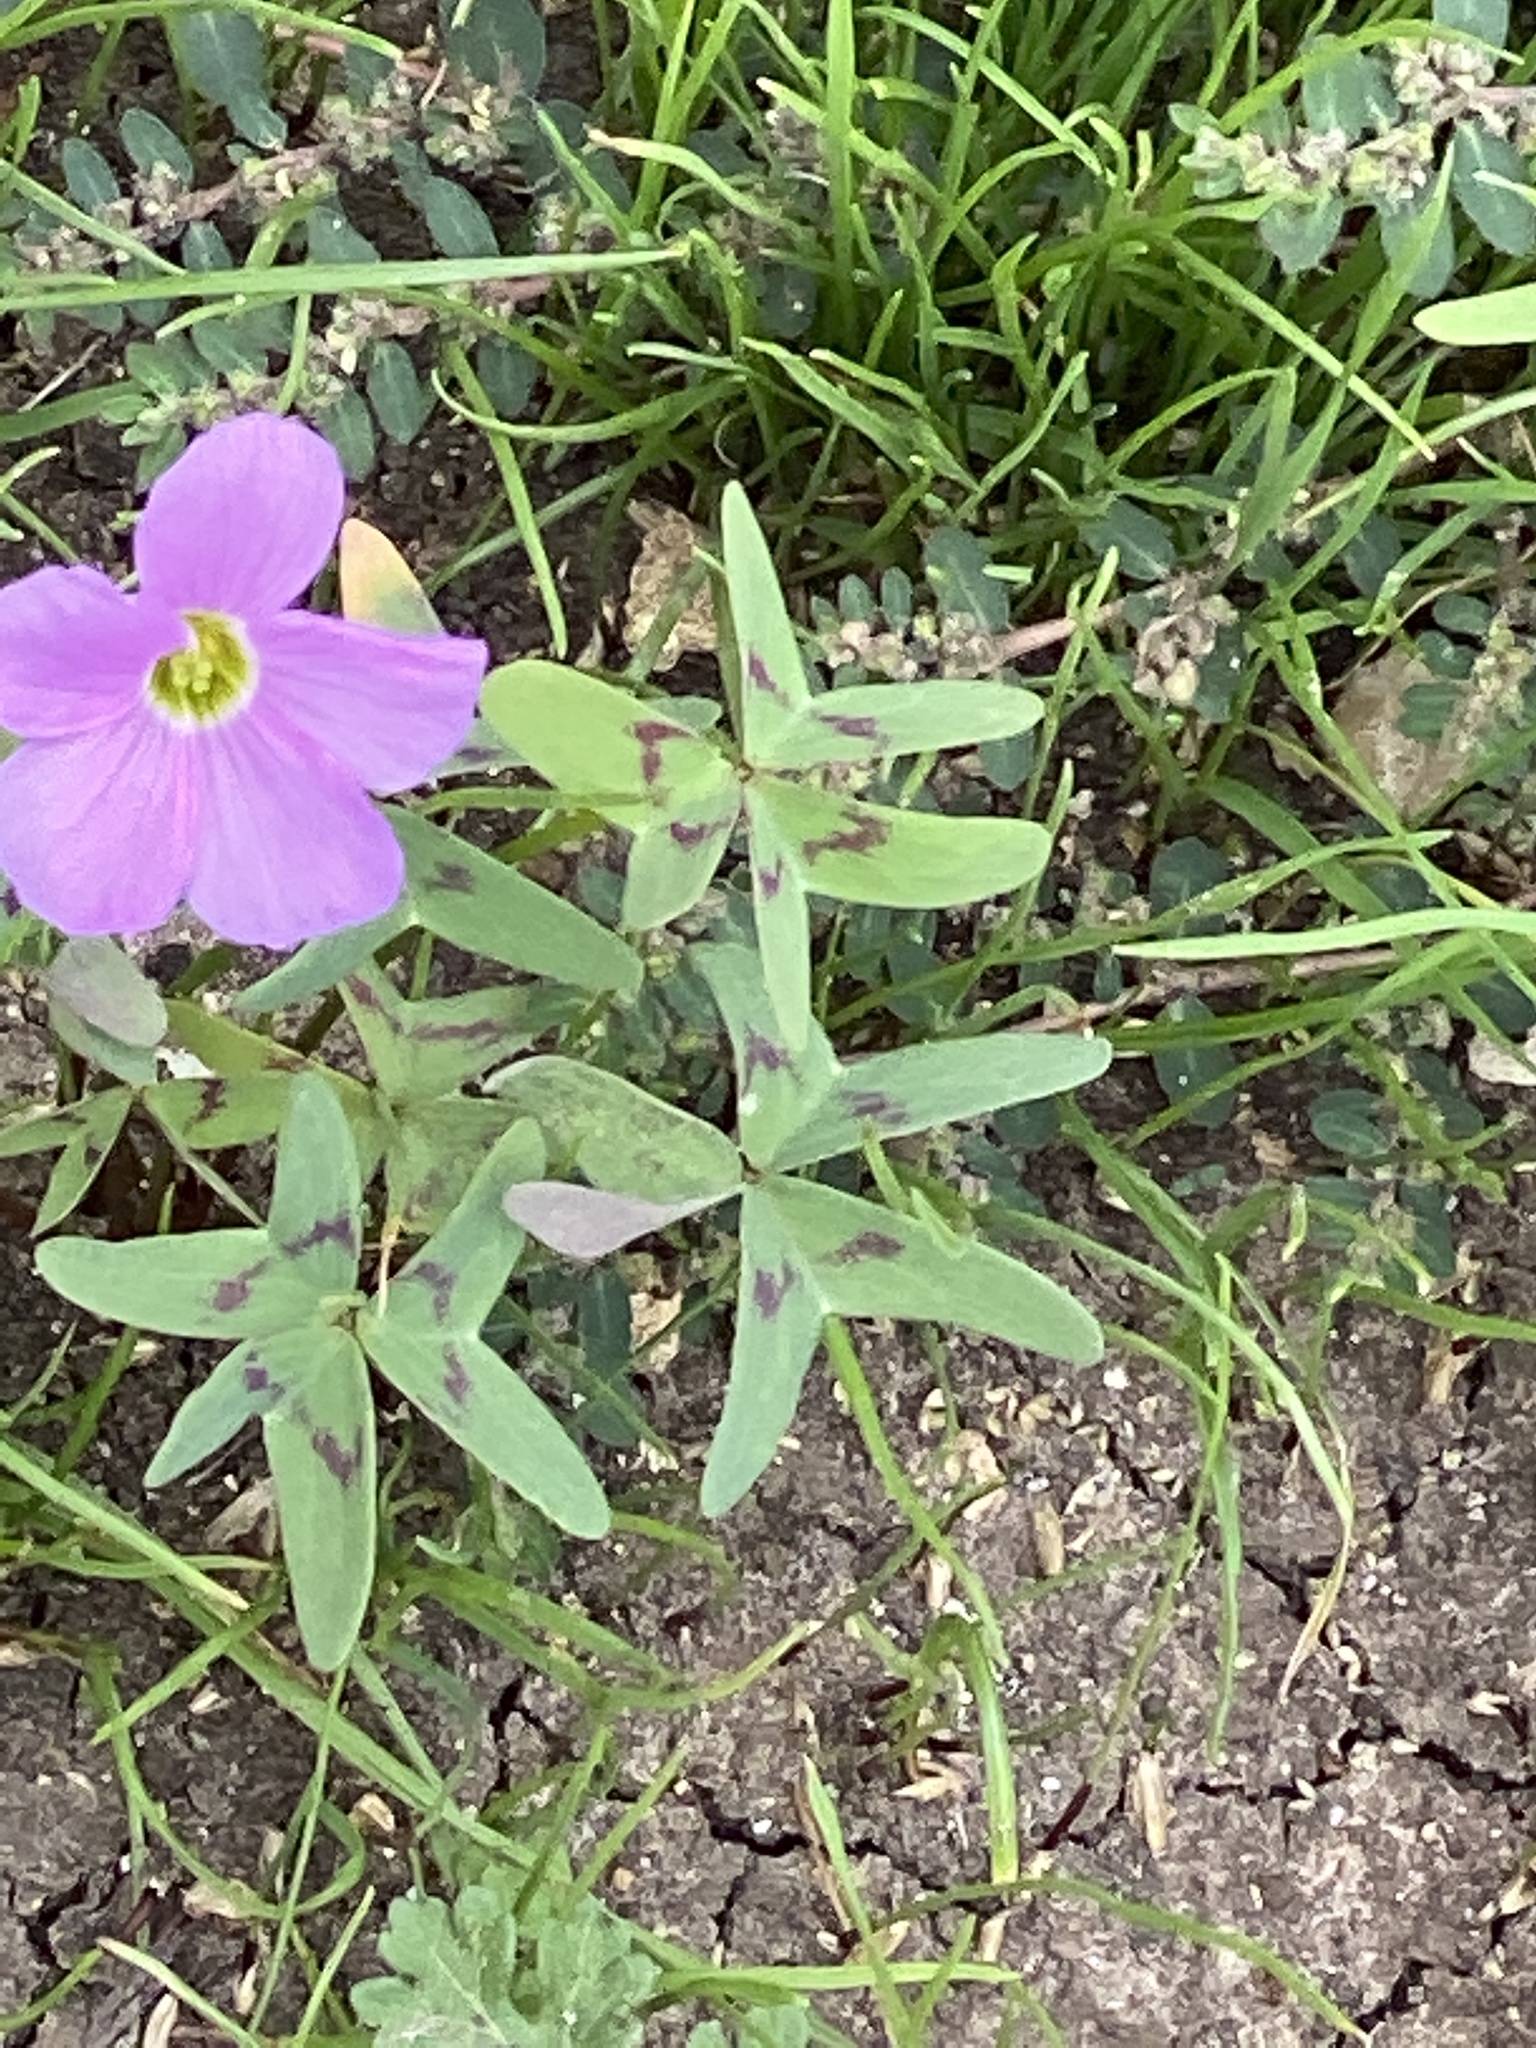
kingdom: Plantae
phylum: Tracheophyta
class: Magnoliopsida
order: Oxalidales
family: Oxalidaceae
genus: Oxalis
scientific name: Oxalis drummondii
